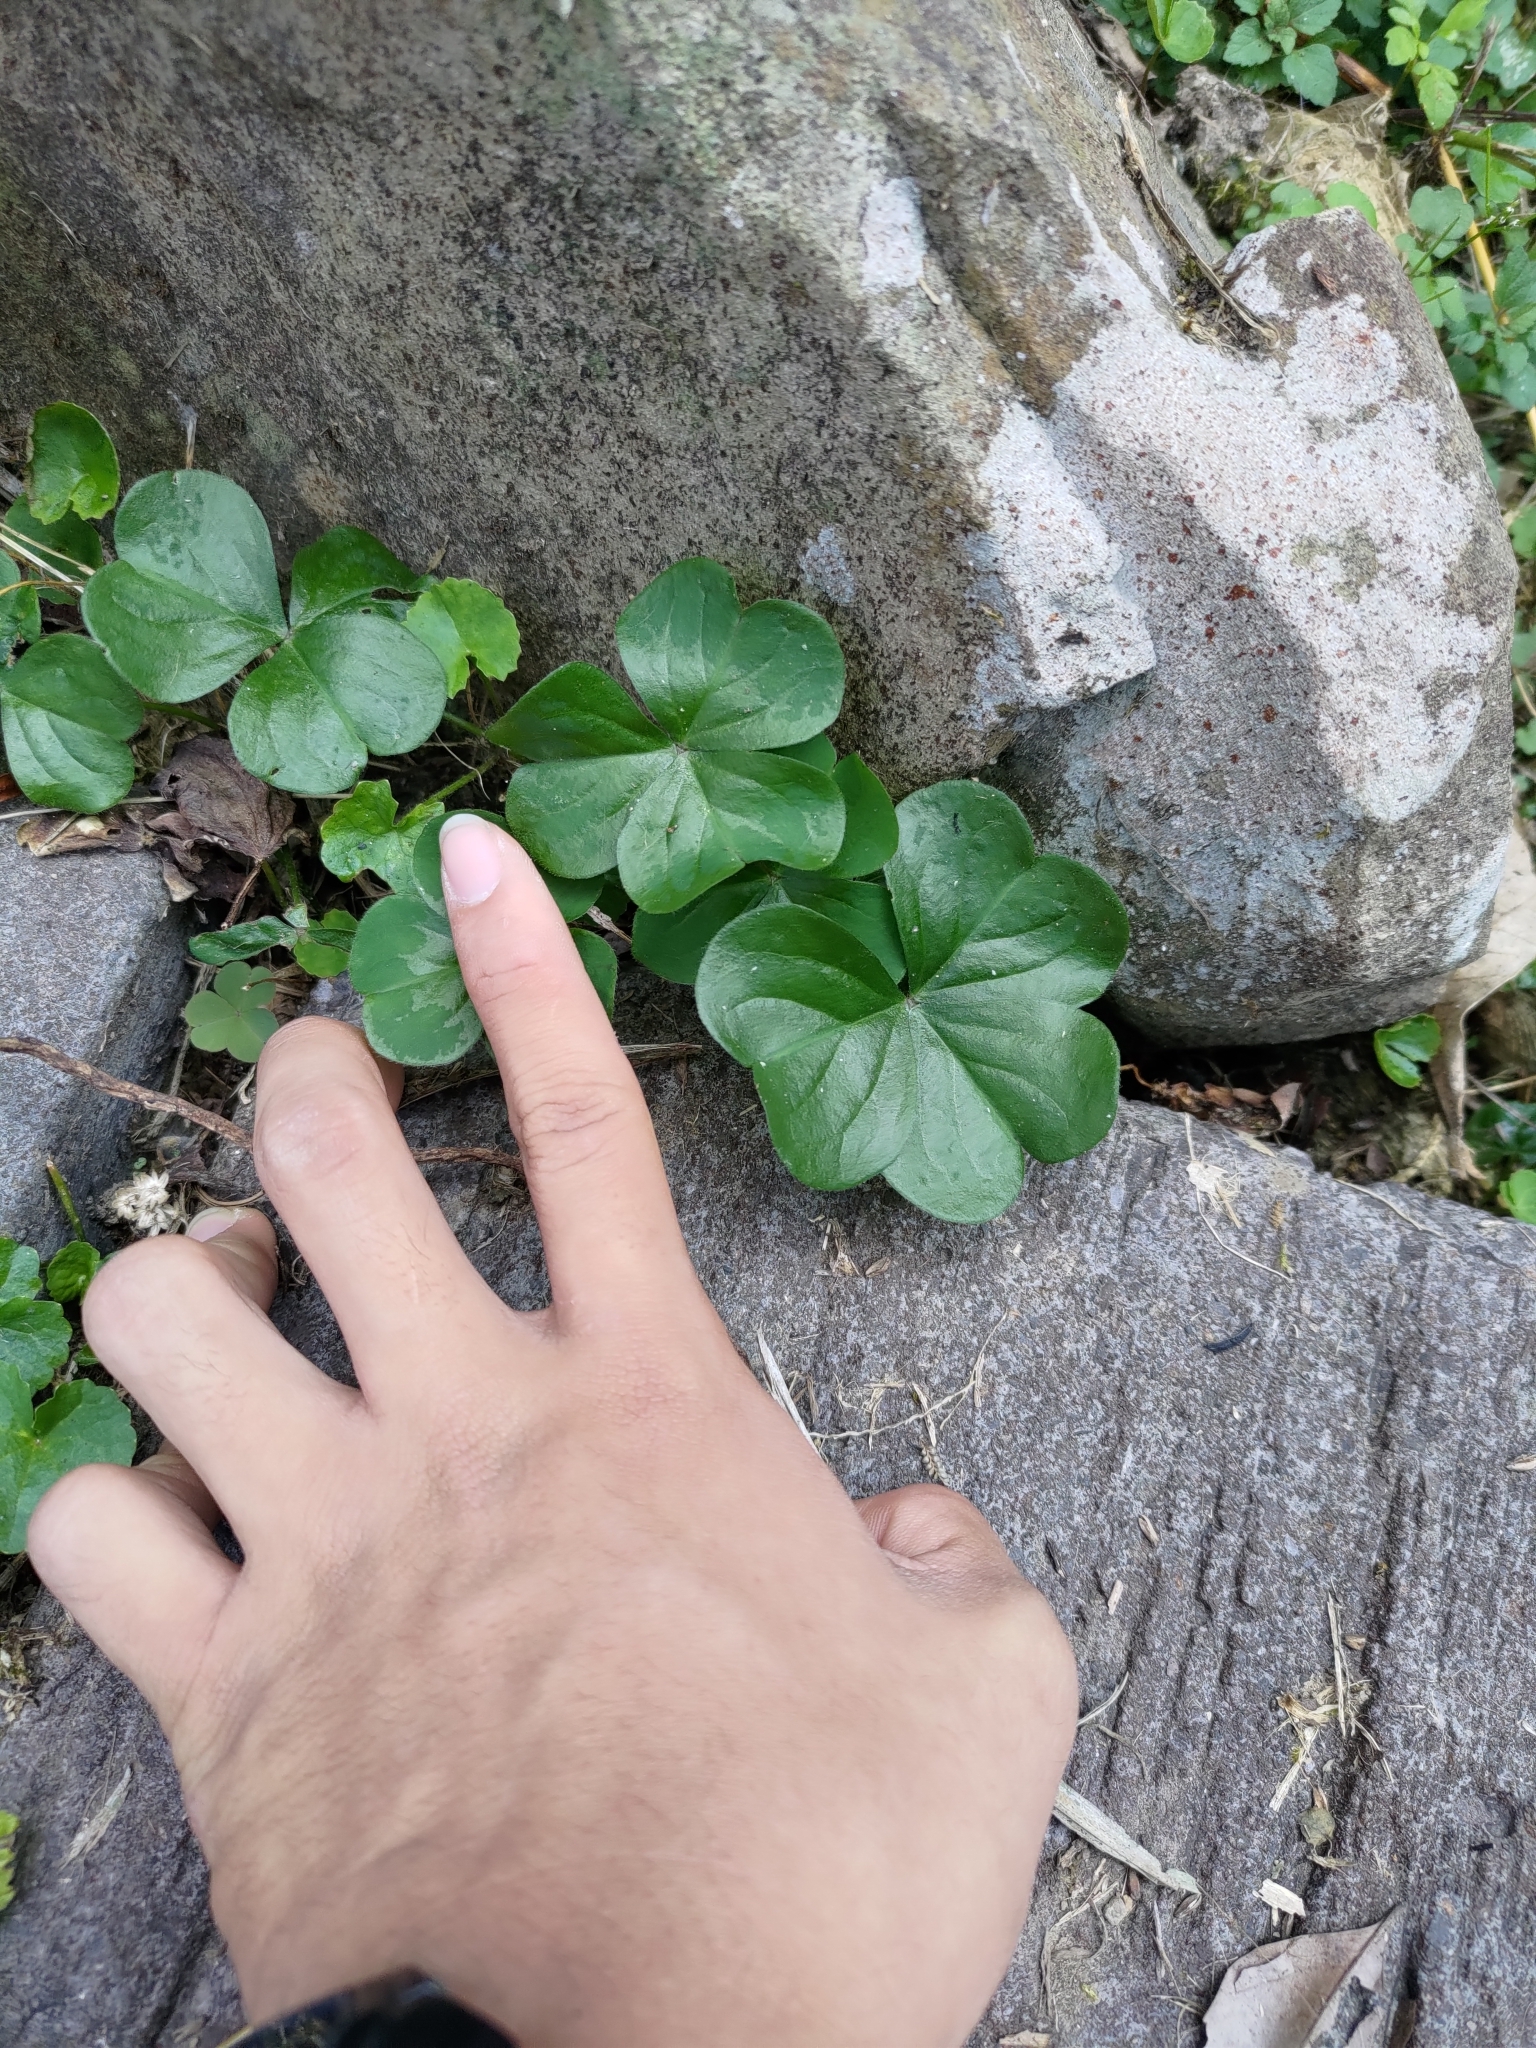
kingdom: Plantae
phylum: Tracheophyta
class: Magnoliopsida
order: Oxalidales
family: Oxalidaceae
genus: Oxalis
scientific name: Oxalis debilis
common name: Large-flowered pink-sorrel
